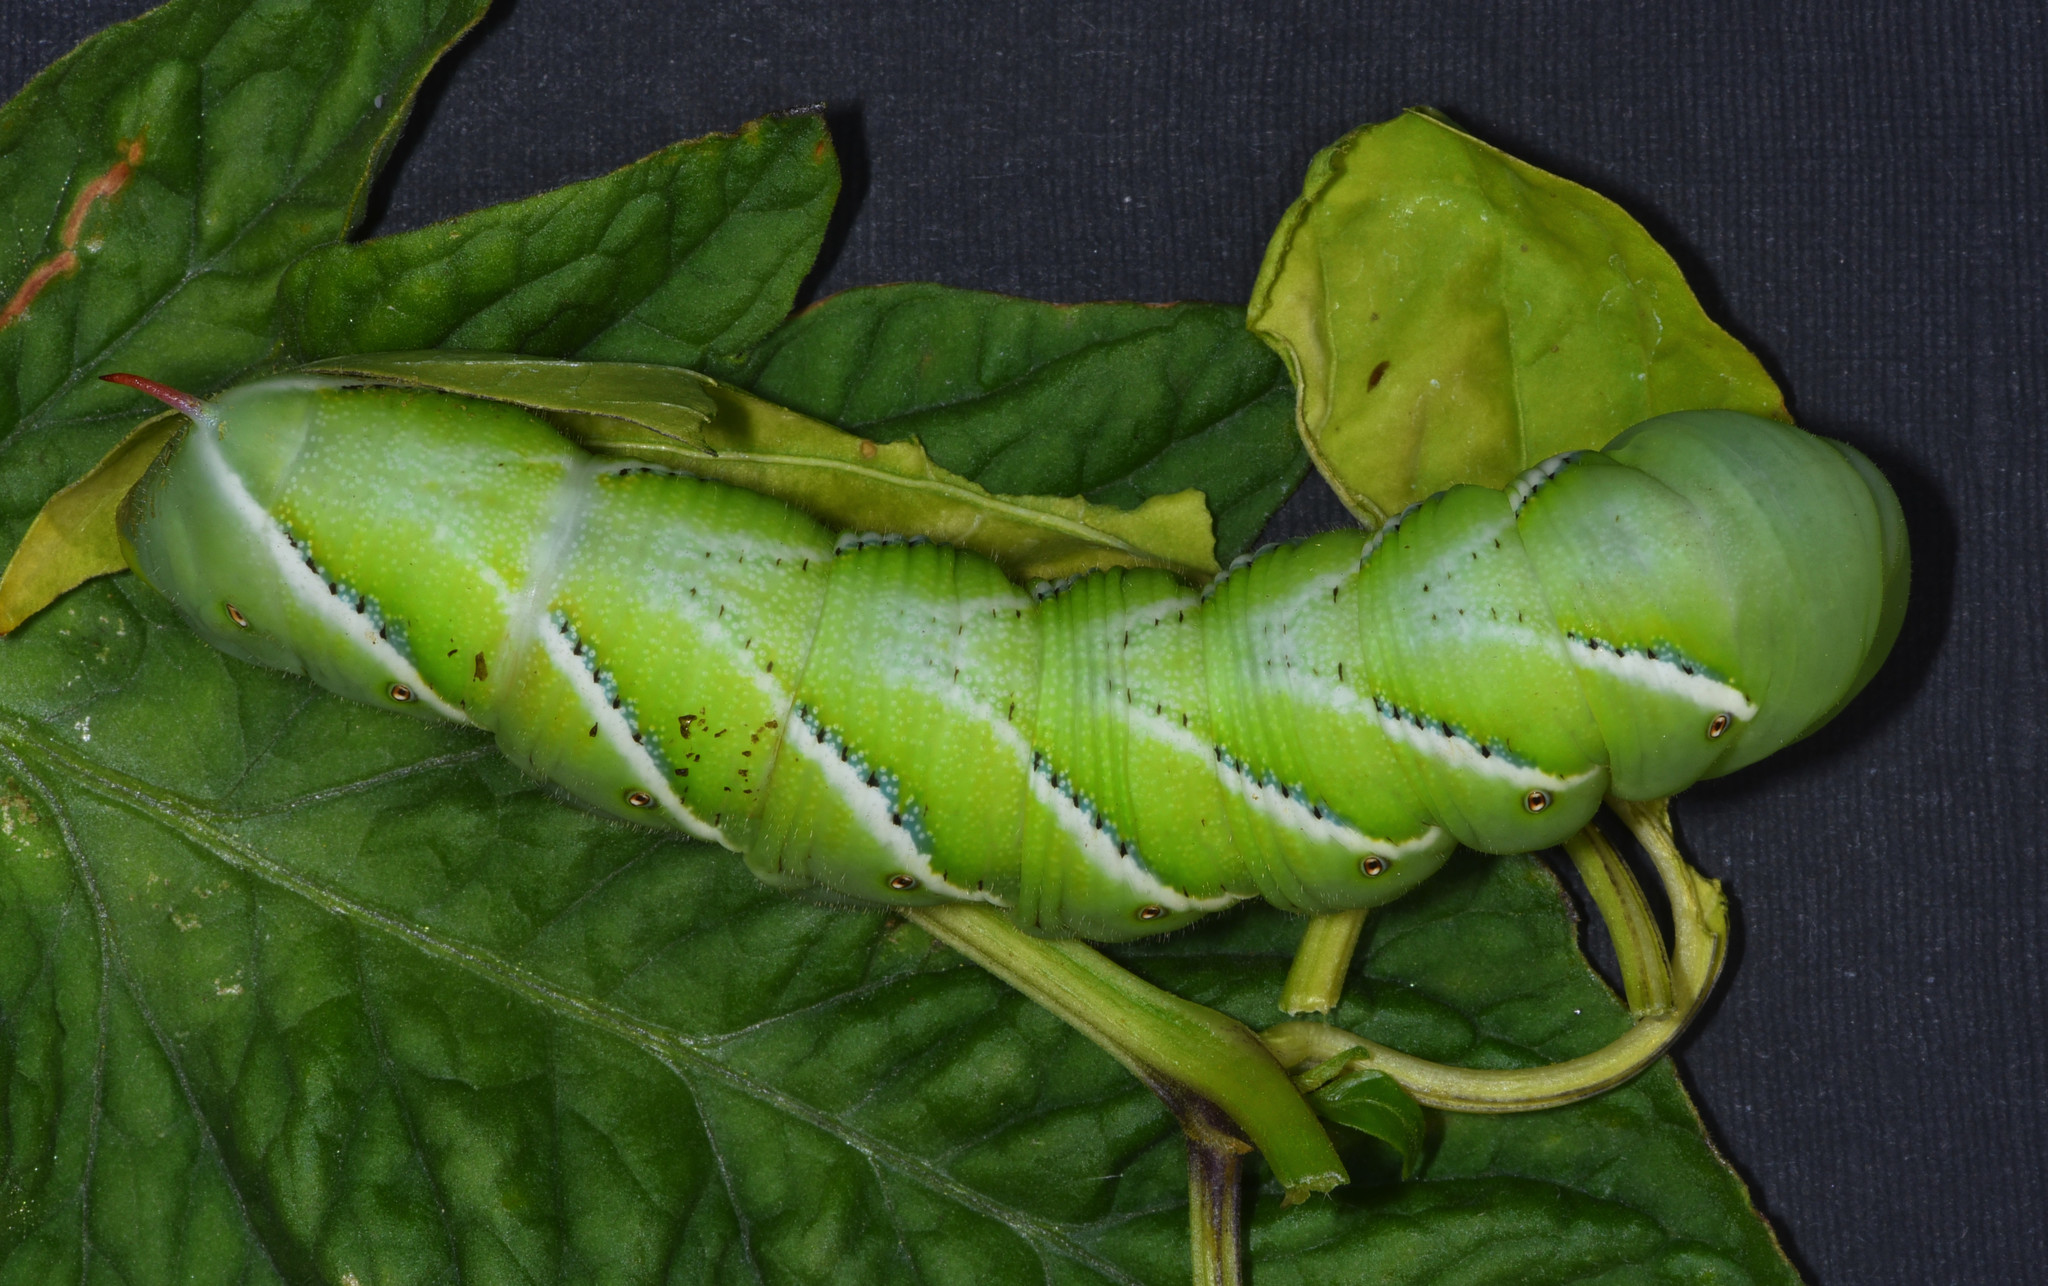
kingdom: Animalia
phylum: Arthropoda
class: Insecta
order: Lepidoptera
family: Sphingidae
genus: Manduca
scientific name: Manduca sexta
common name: Carolina sphinx
